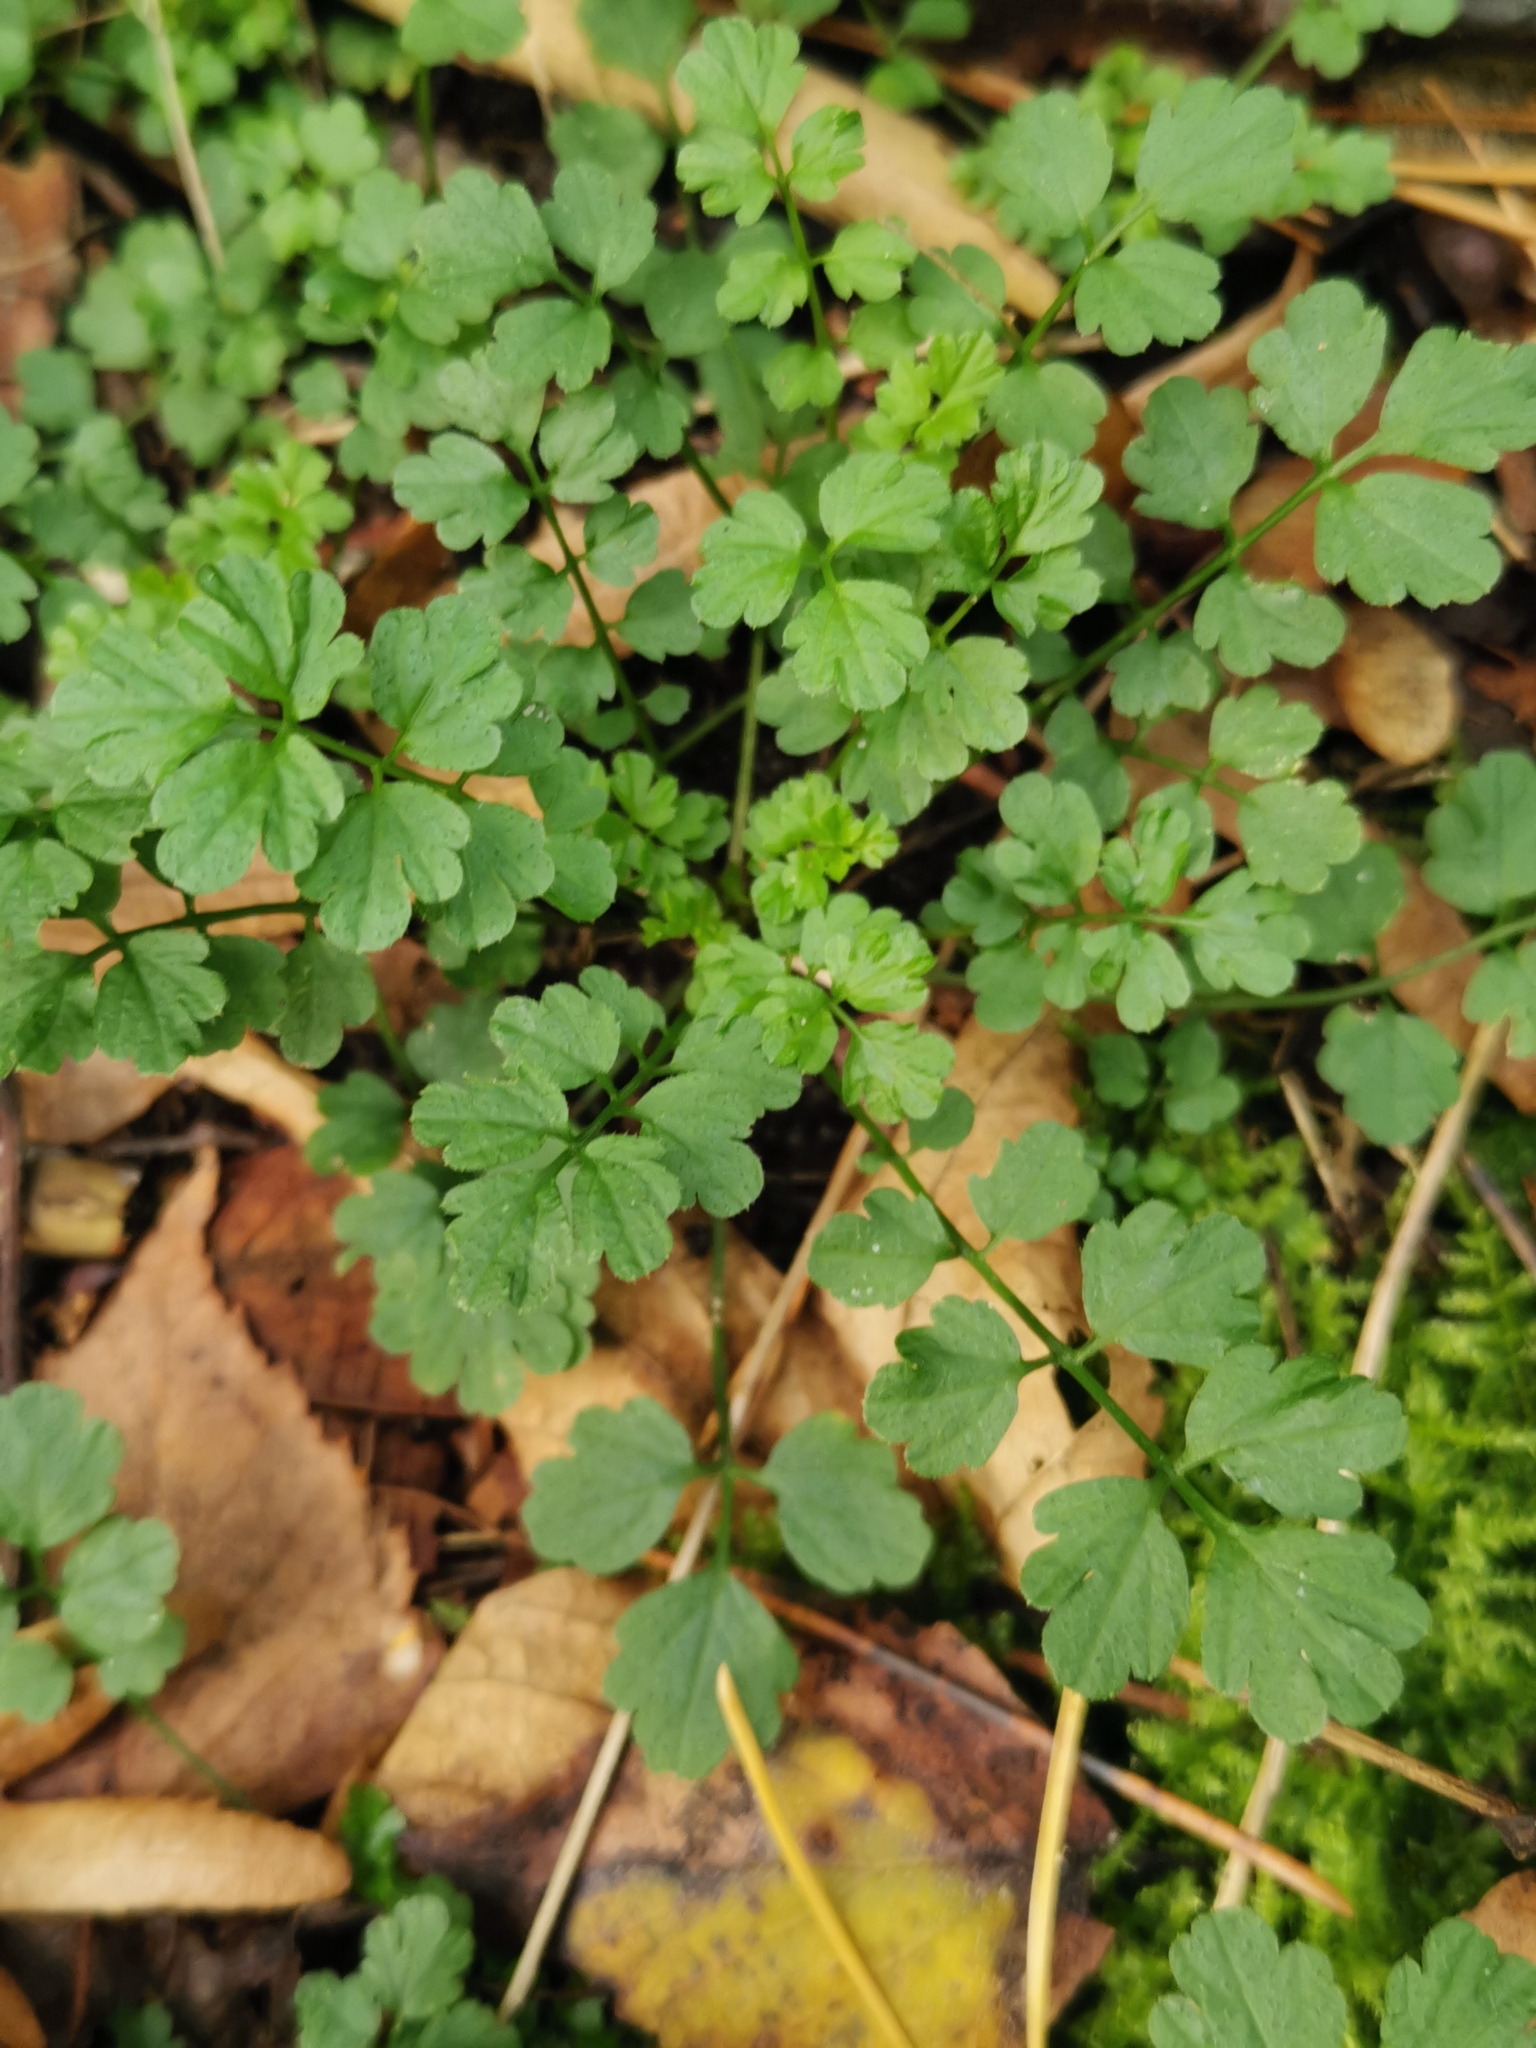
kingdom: Plantae
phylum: Tracheophyta
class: Magnoliopsida
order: Brassicales
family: Brassicaceae
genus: Cardamine
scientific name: Cardamine impatiens
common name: Narrow-leaved bitter-cress
